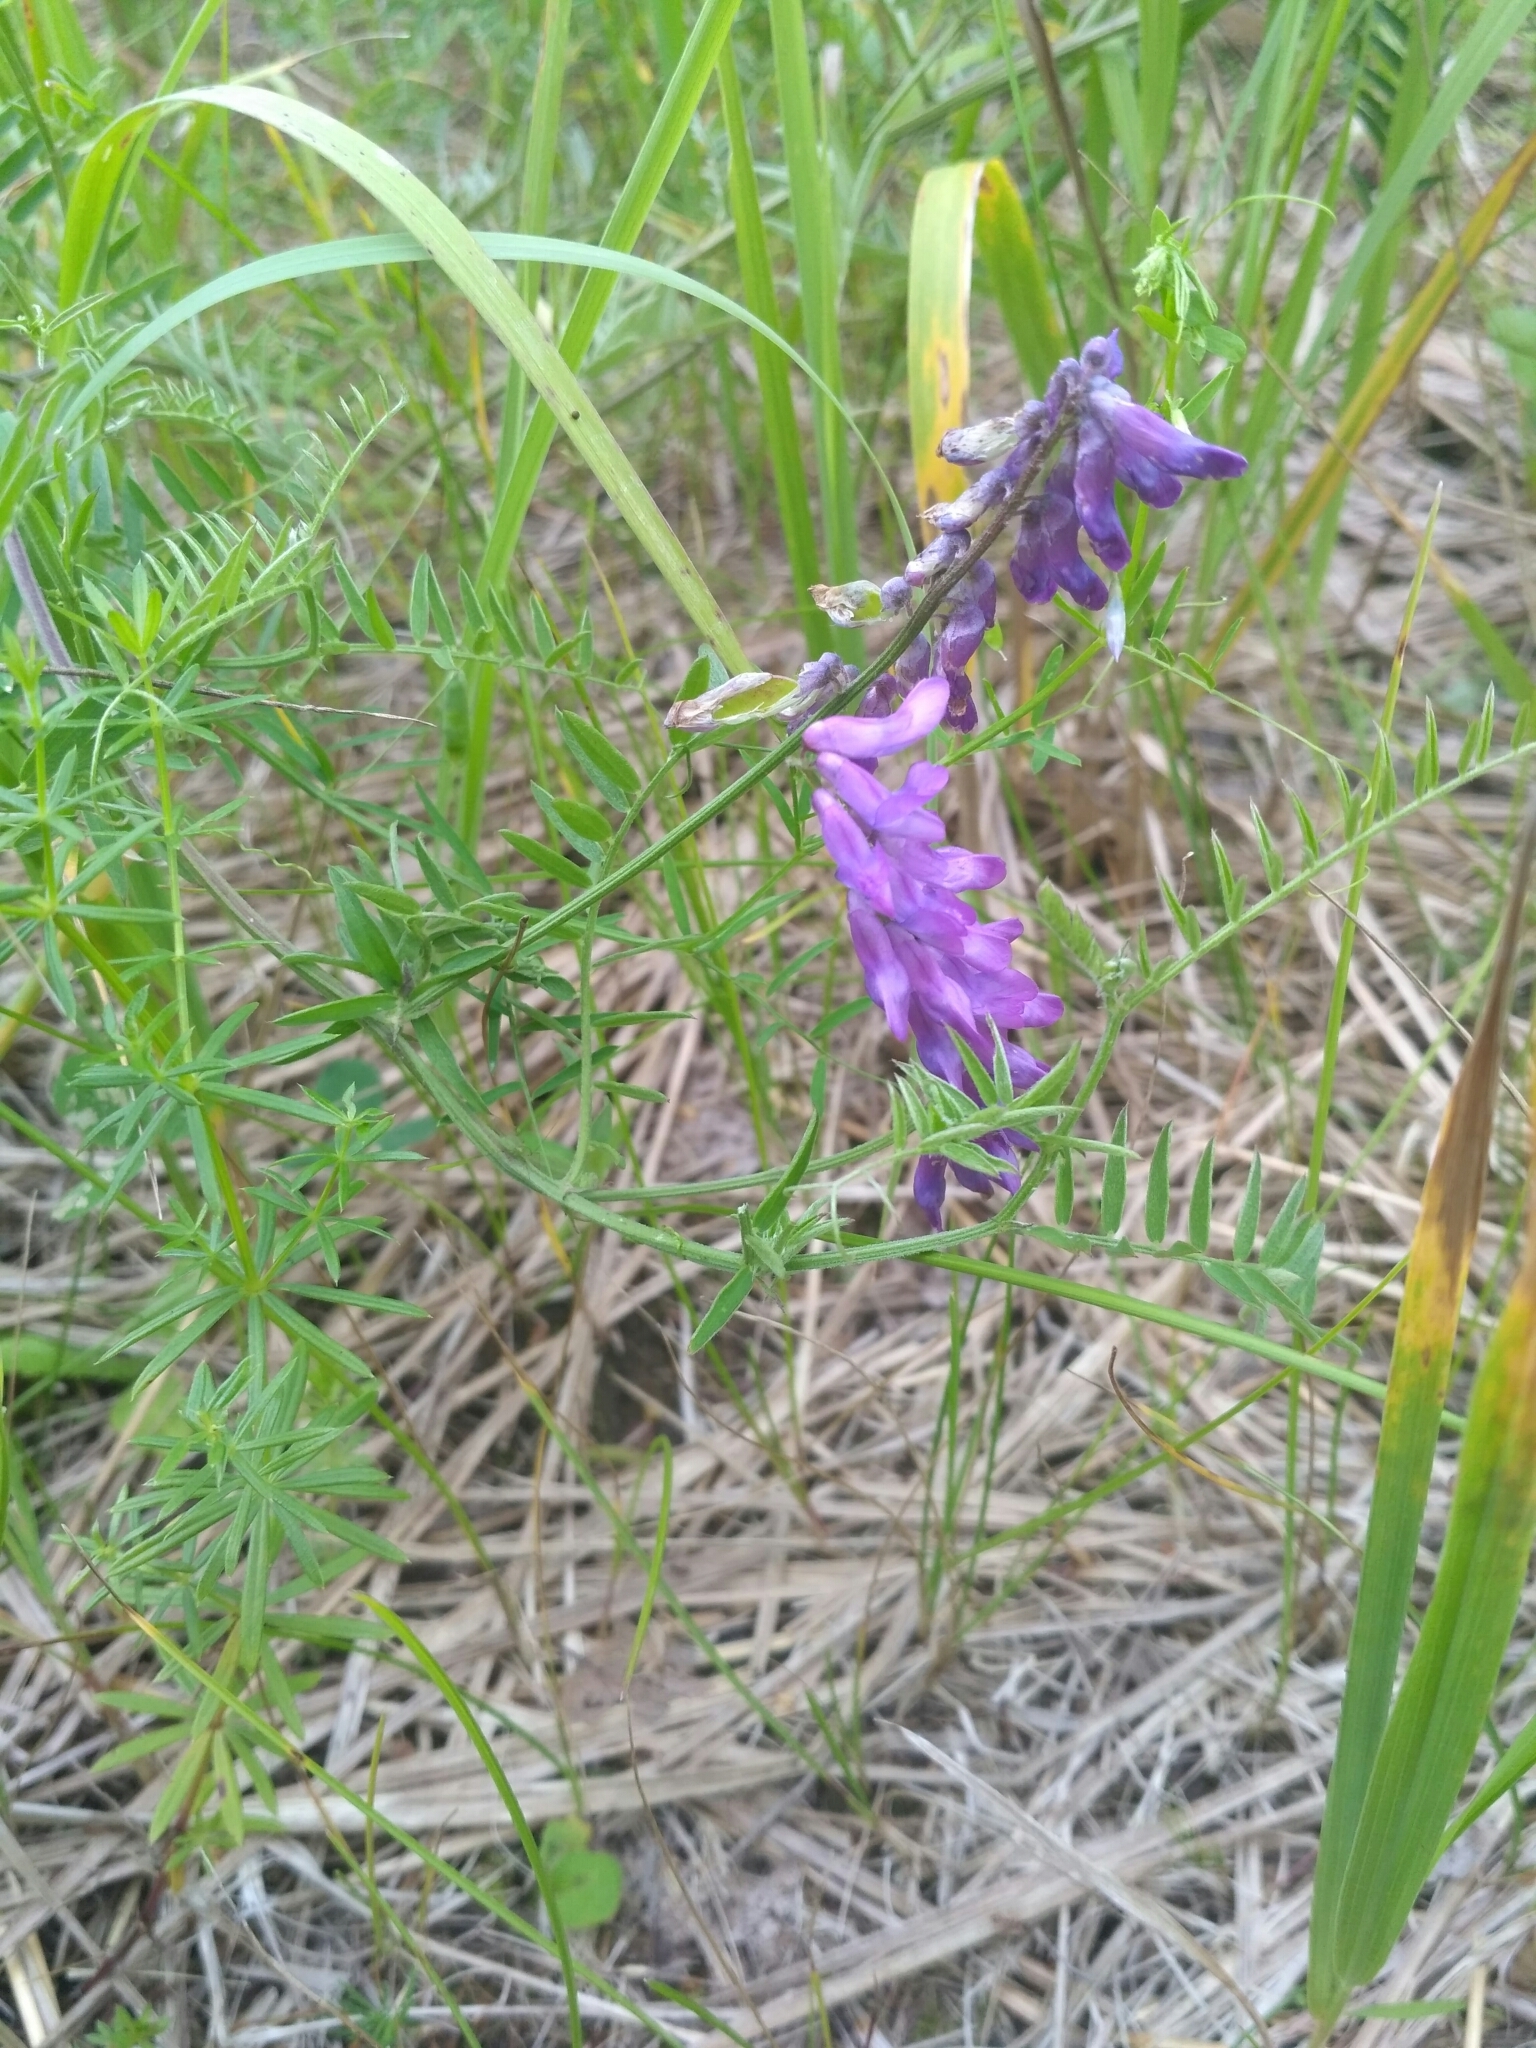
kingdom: Plantae
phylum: Tracheophyta
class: Magnoliopsida
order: Fabales
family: Fabaceae
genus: Vicia
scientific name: Vicia cracca
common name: Bird vetch
